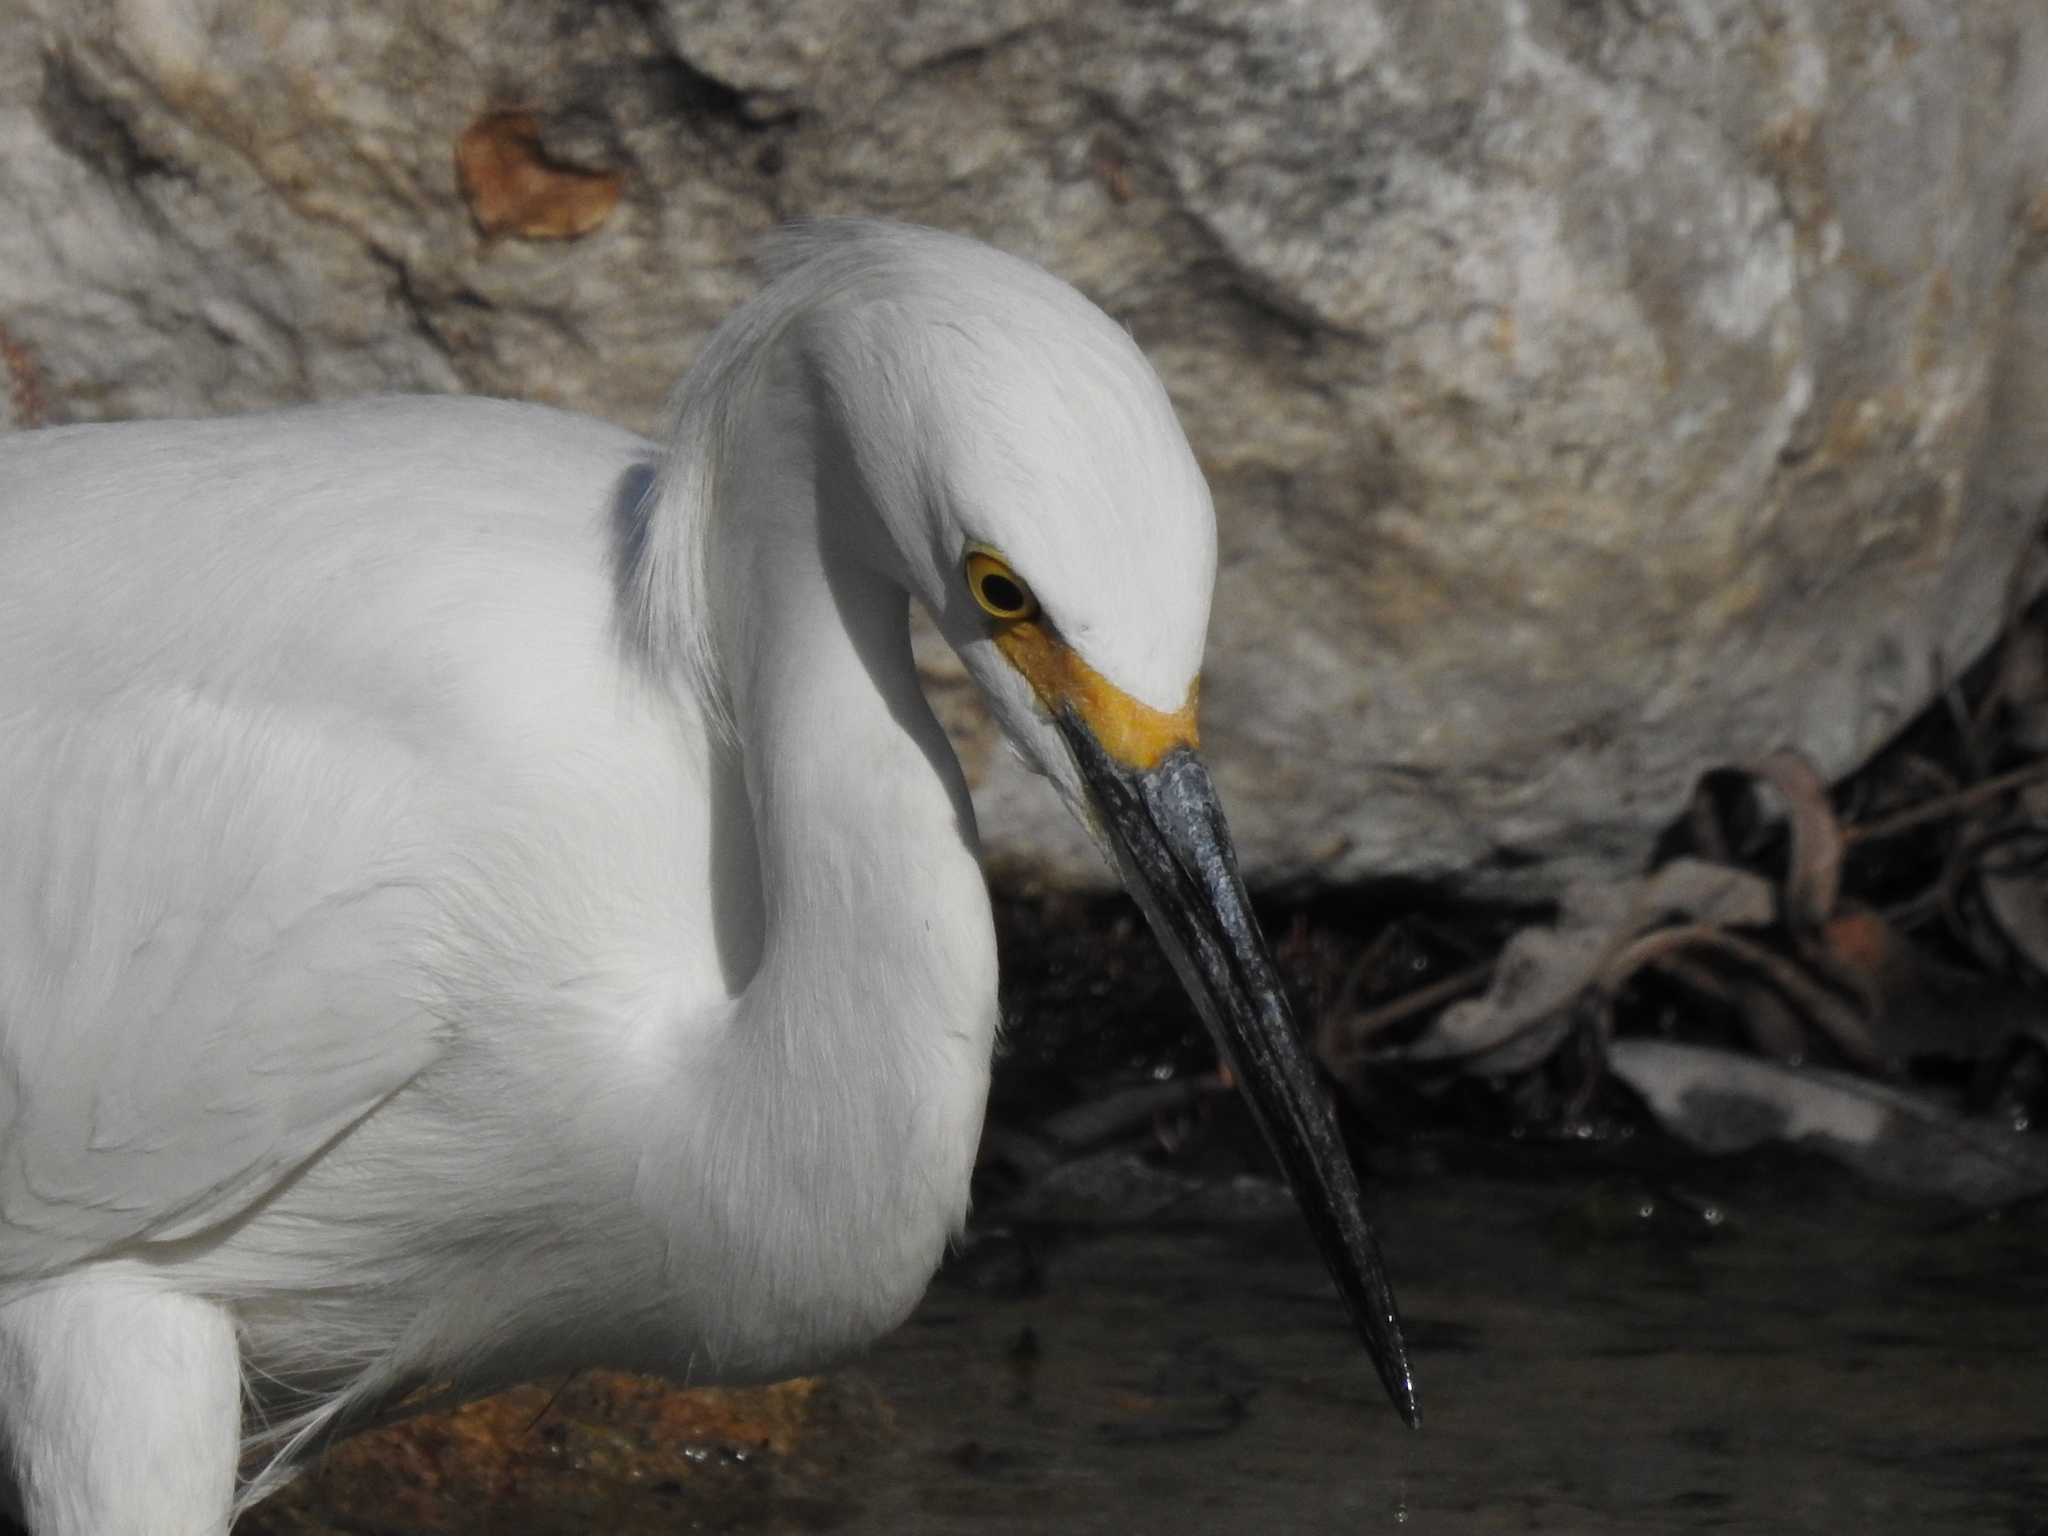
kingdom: Animalia
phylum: Chordata
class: Aves
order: Pelecaniformes
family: Ardeidae
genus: Egretta
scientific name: Egretta thula
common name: Snowy egret
